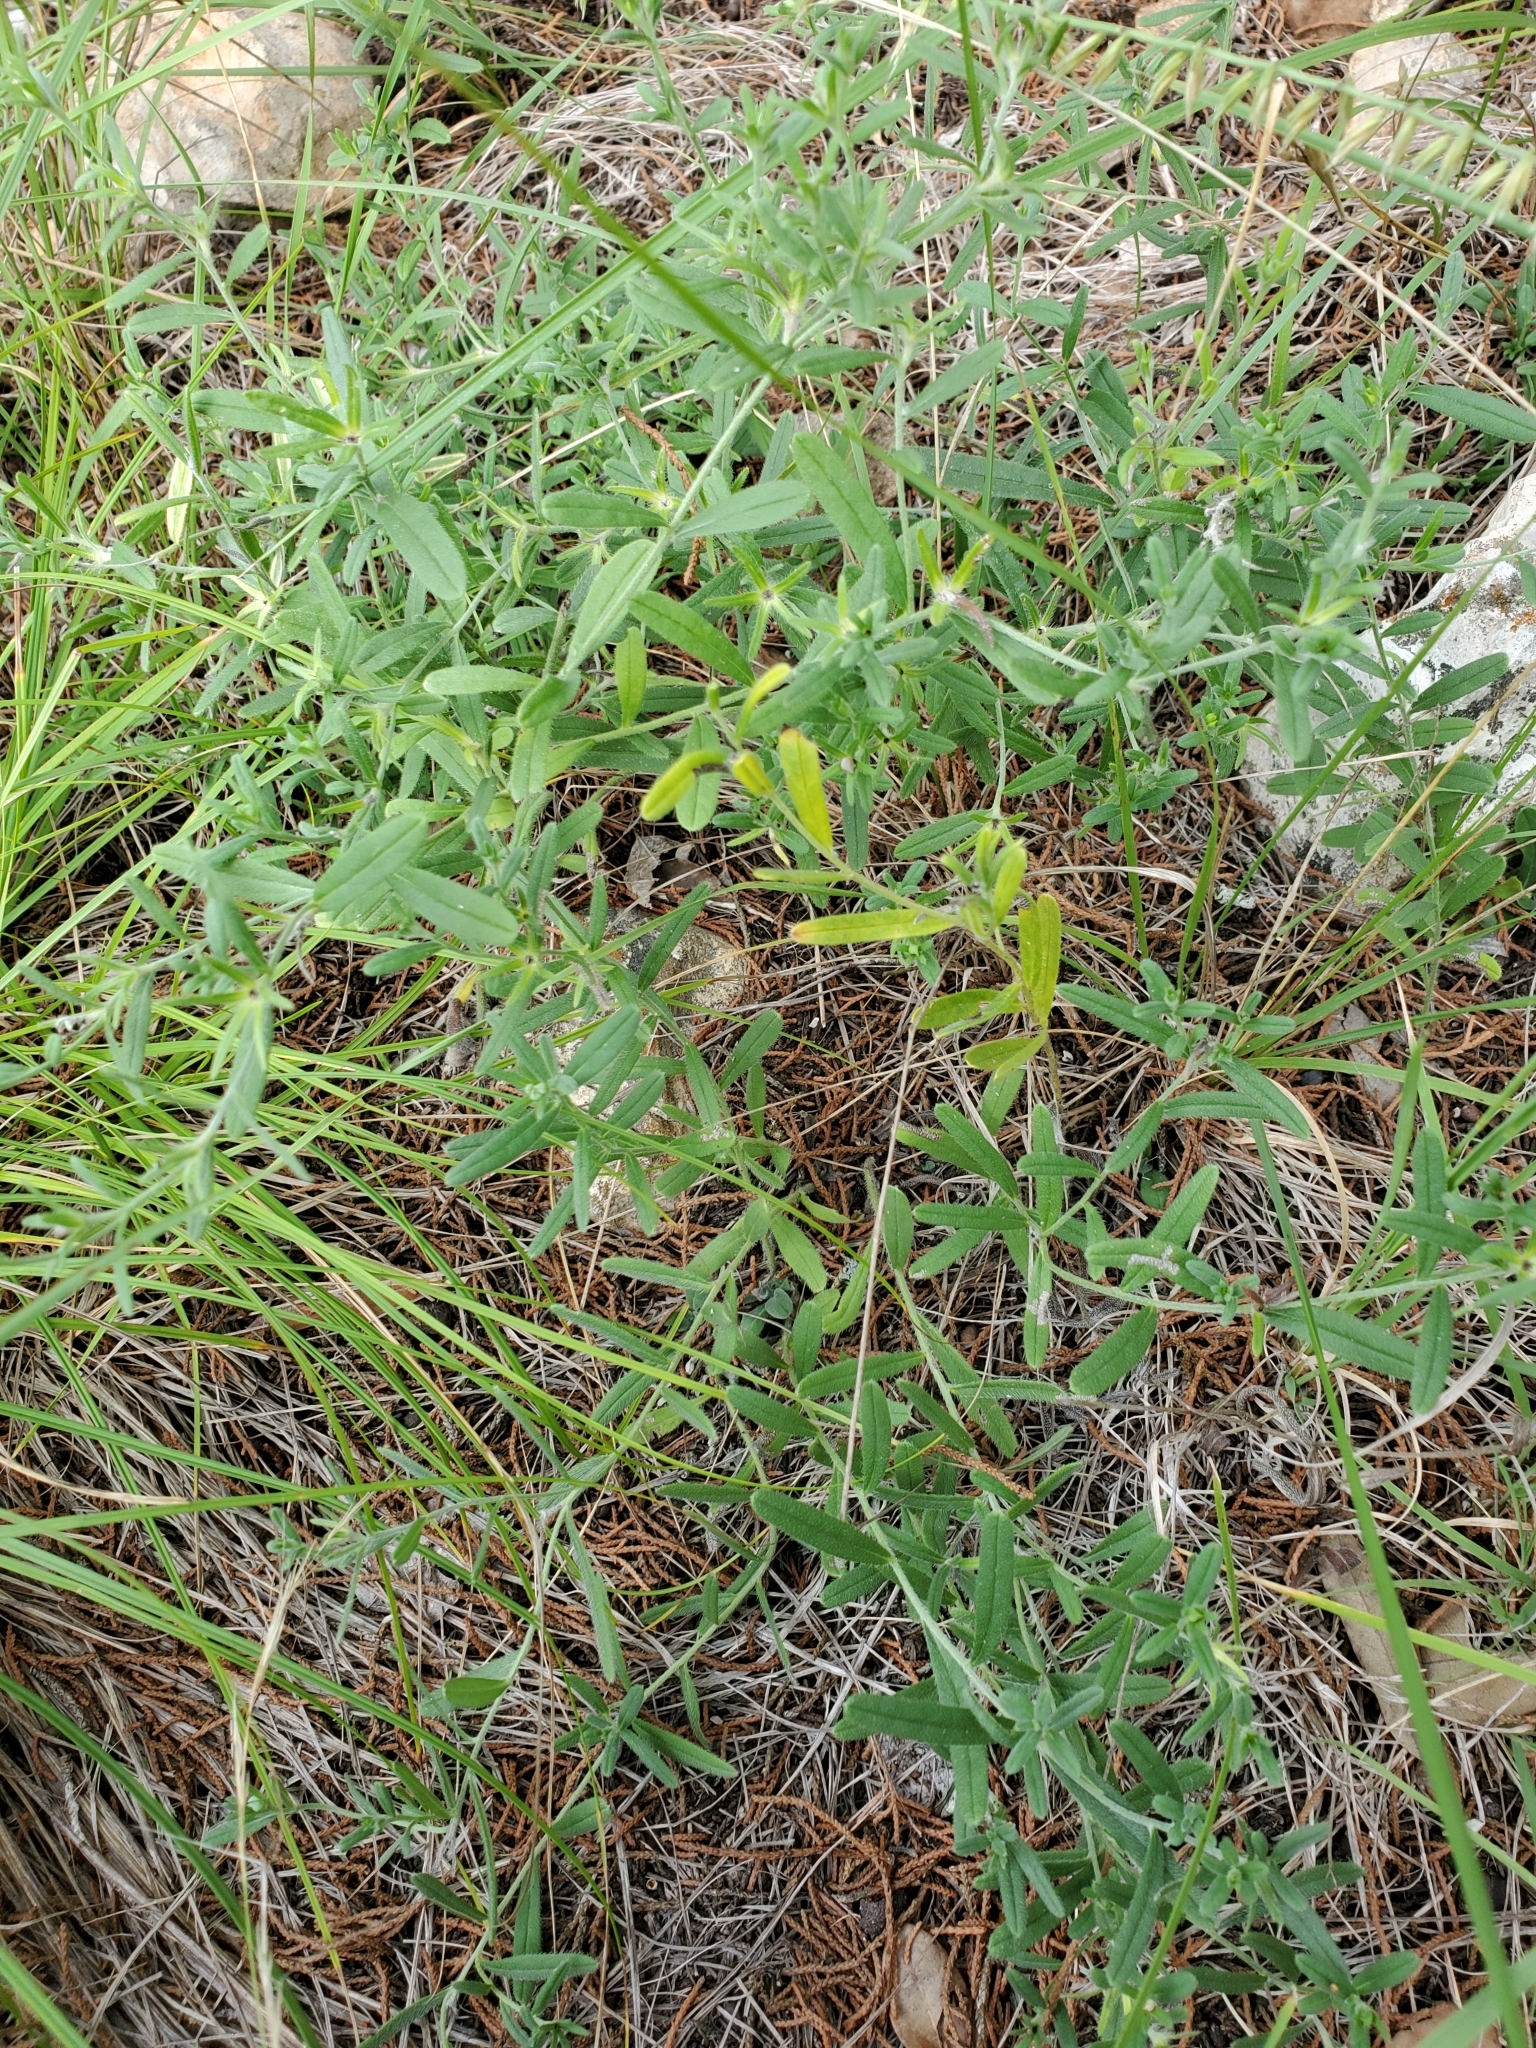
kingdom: Plantae
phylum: Tracheophyta
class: Magnoliopsida
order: Boraginales
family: Boraginaceae
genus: Buglossoides
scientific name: Buglossoides arvensis
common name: Corn gromwell
